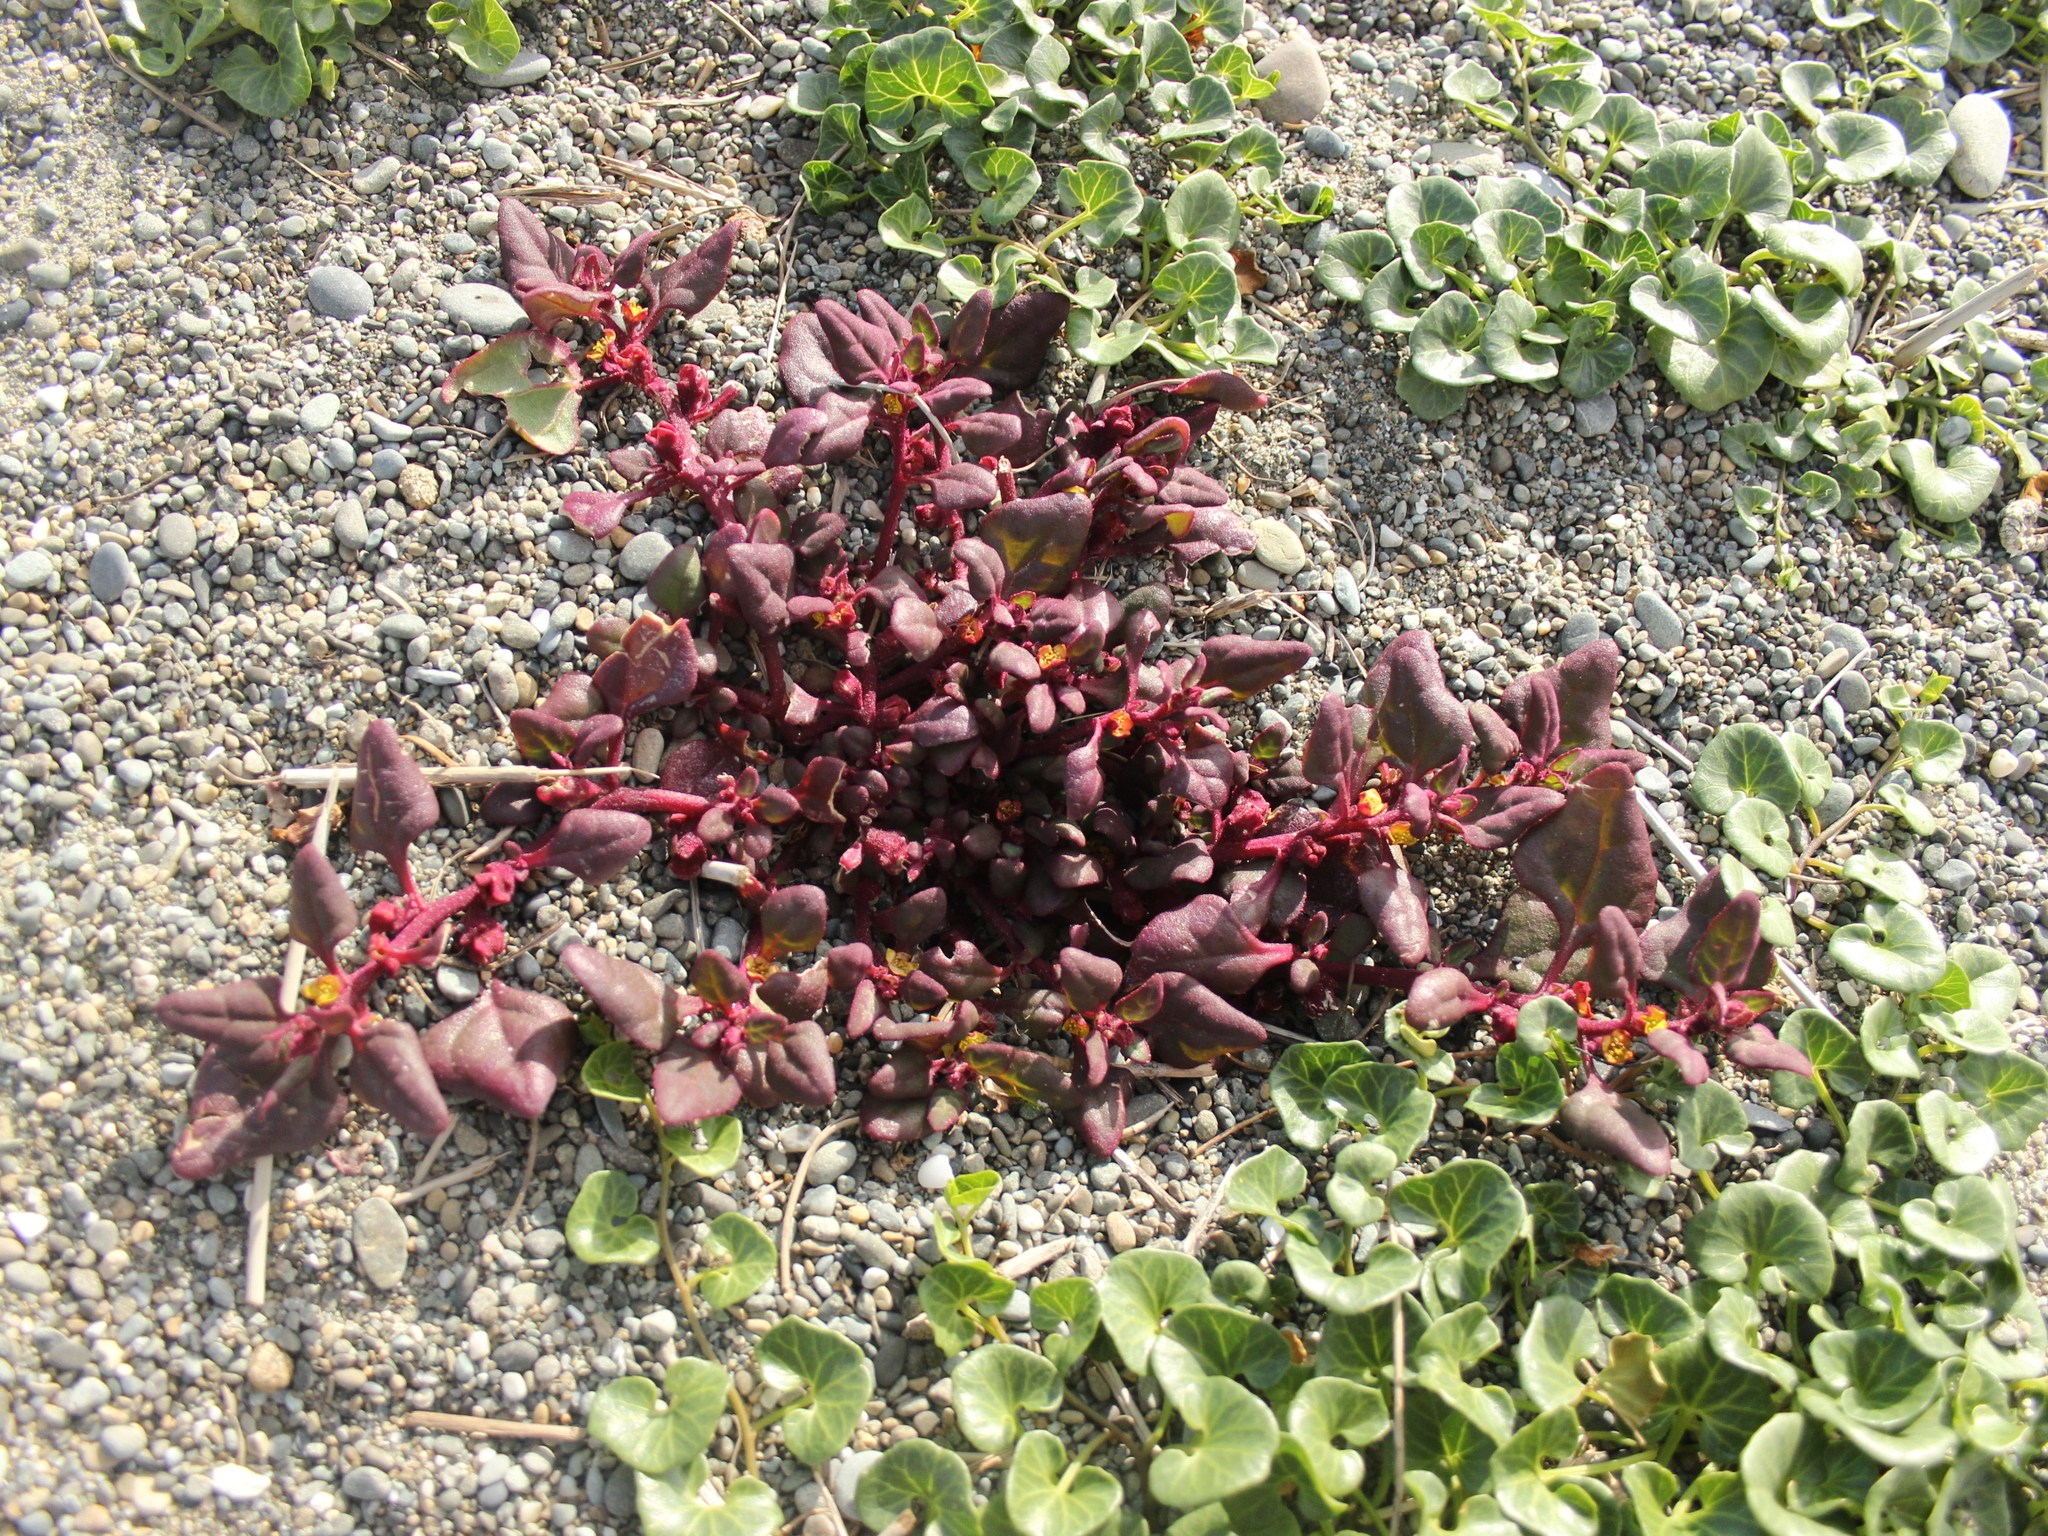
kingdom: Plantae
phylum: Tracheophyta
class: Magnoliopsida
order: Caryophyllales
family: Aizoaceae
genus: Tetragonia
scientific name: Tetragonia tetragonoides
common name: New zealand-spinach
